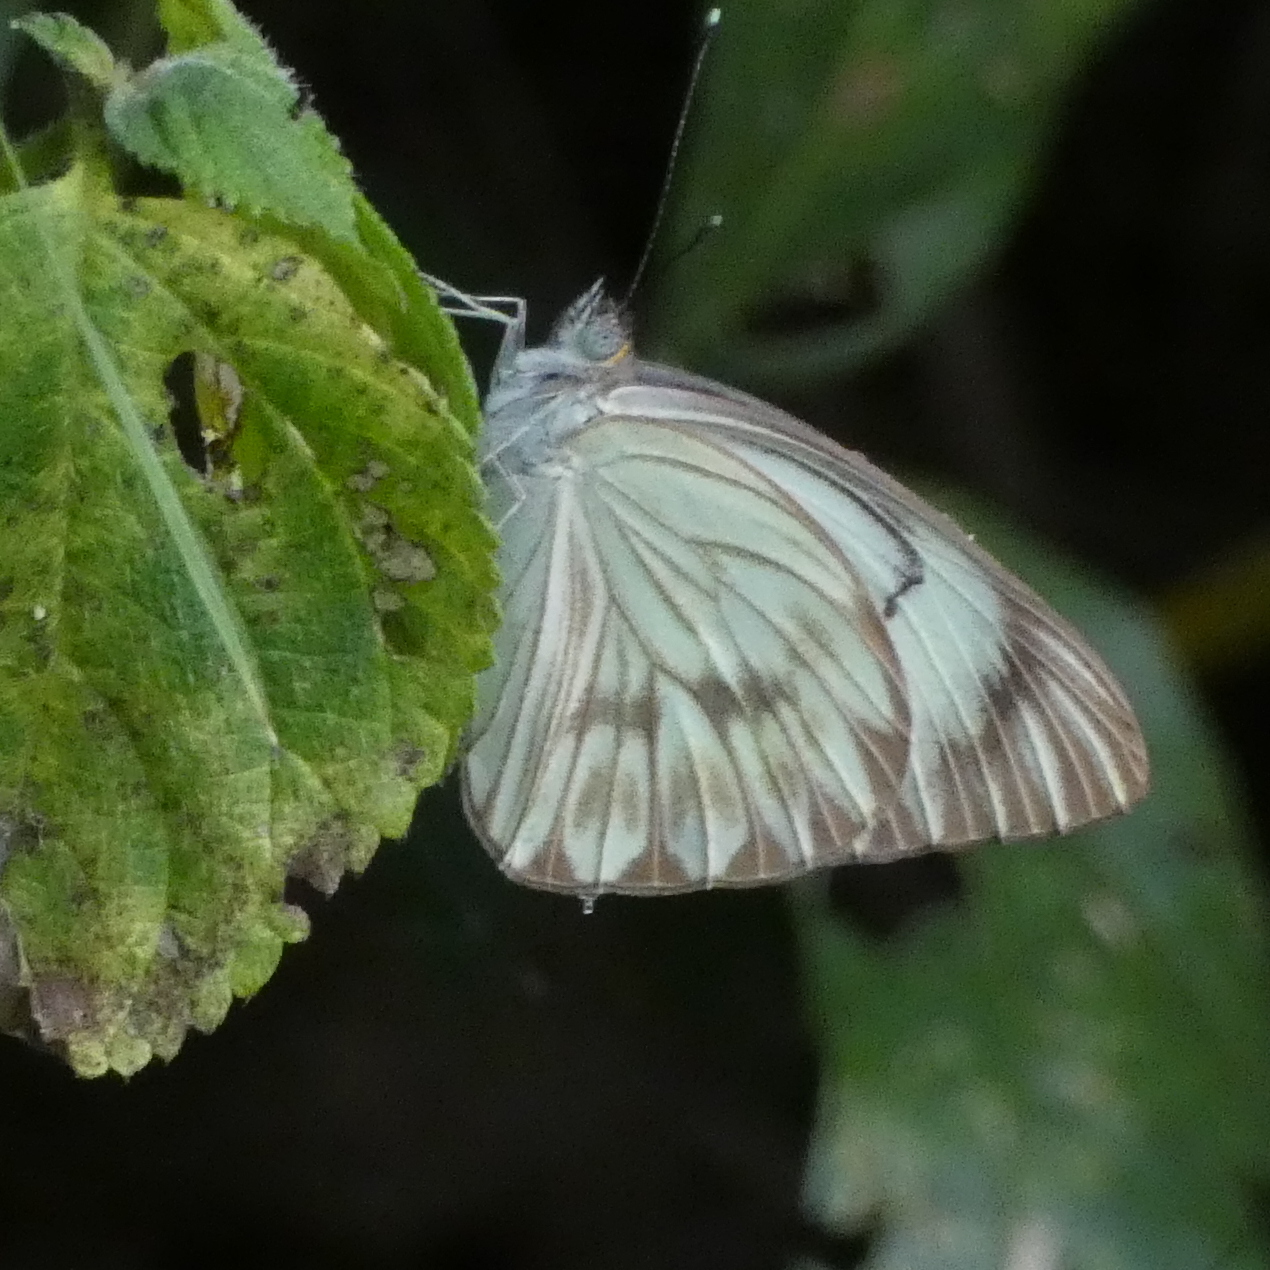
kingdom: Animalia
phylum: Arthropoda
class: Insecta
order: Lepidoptera
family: Pieridae
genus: Ascia
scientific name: Ascia monuste
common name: Great southern white
